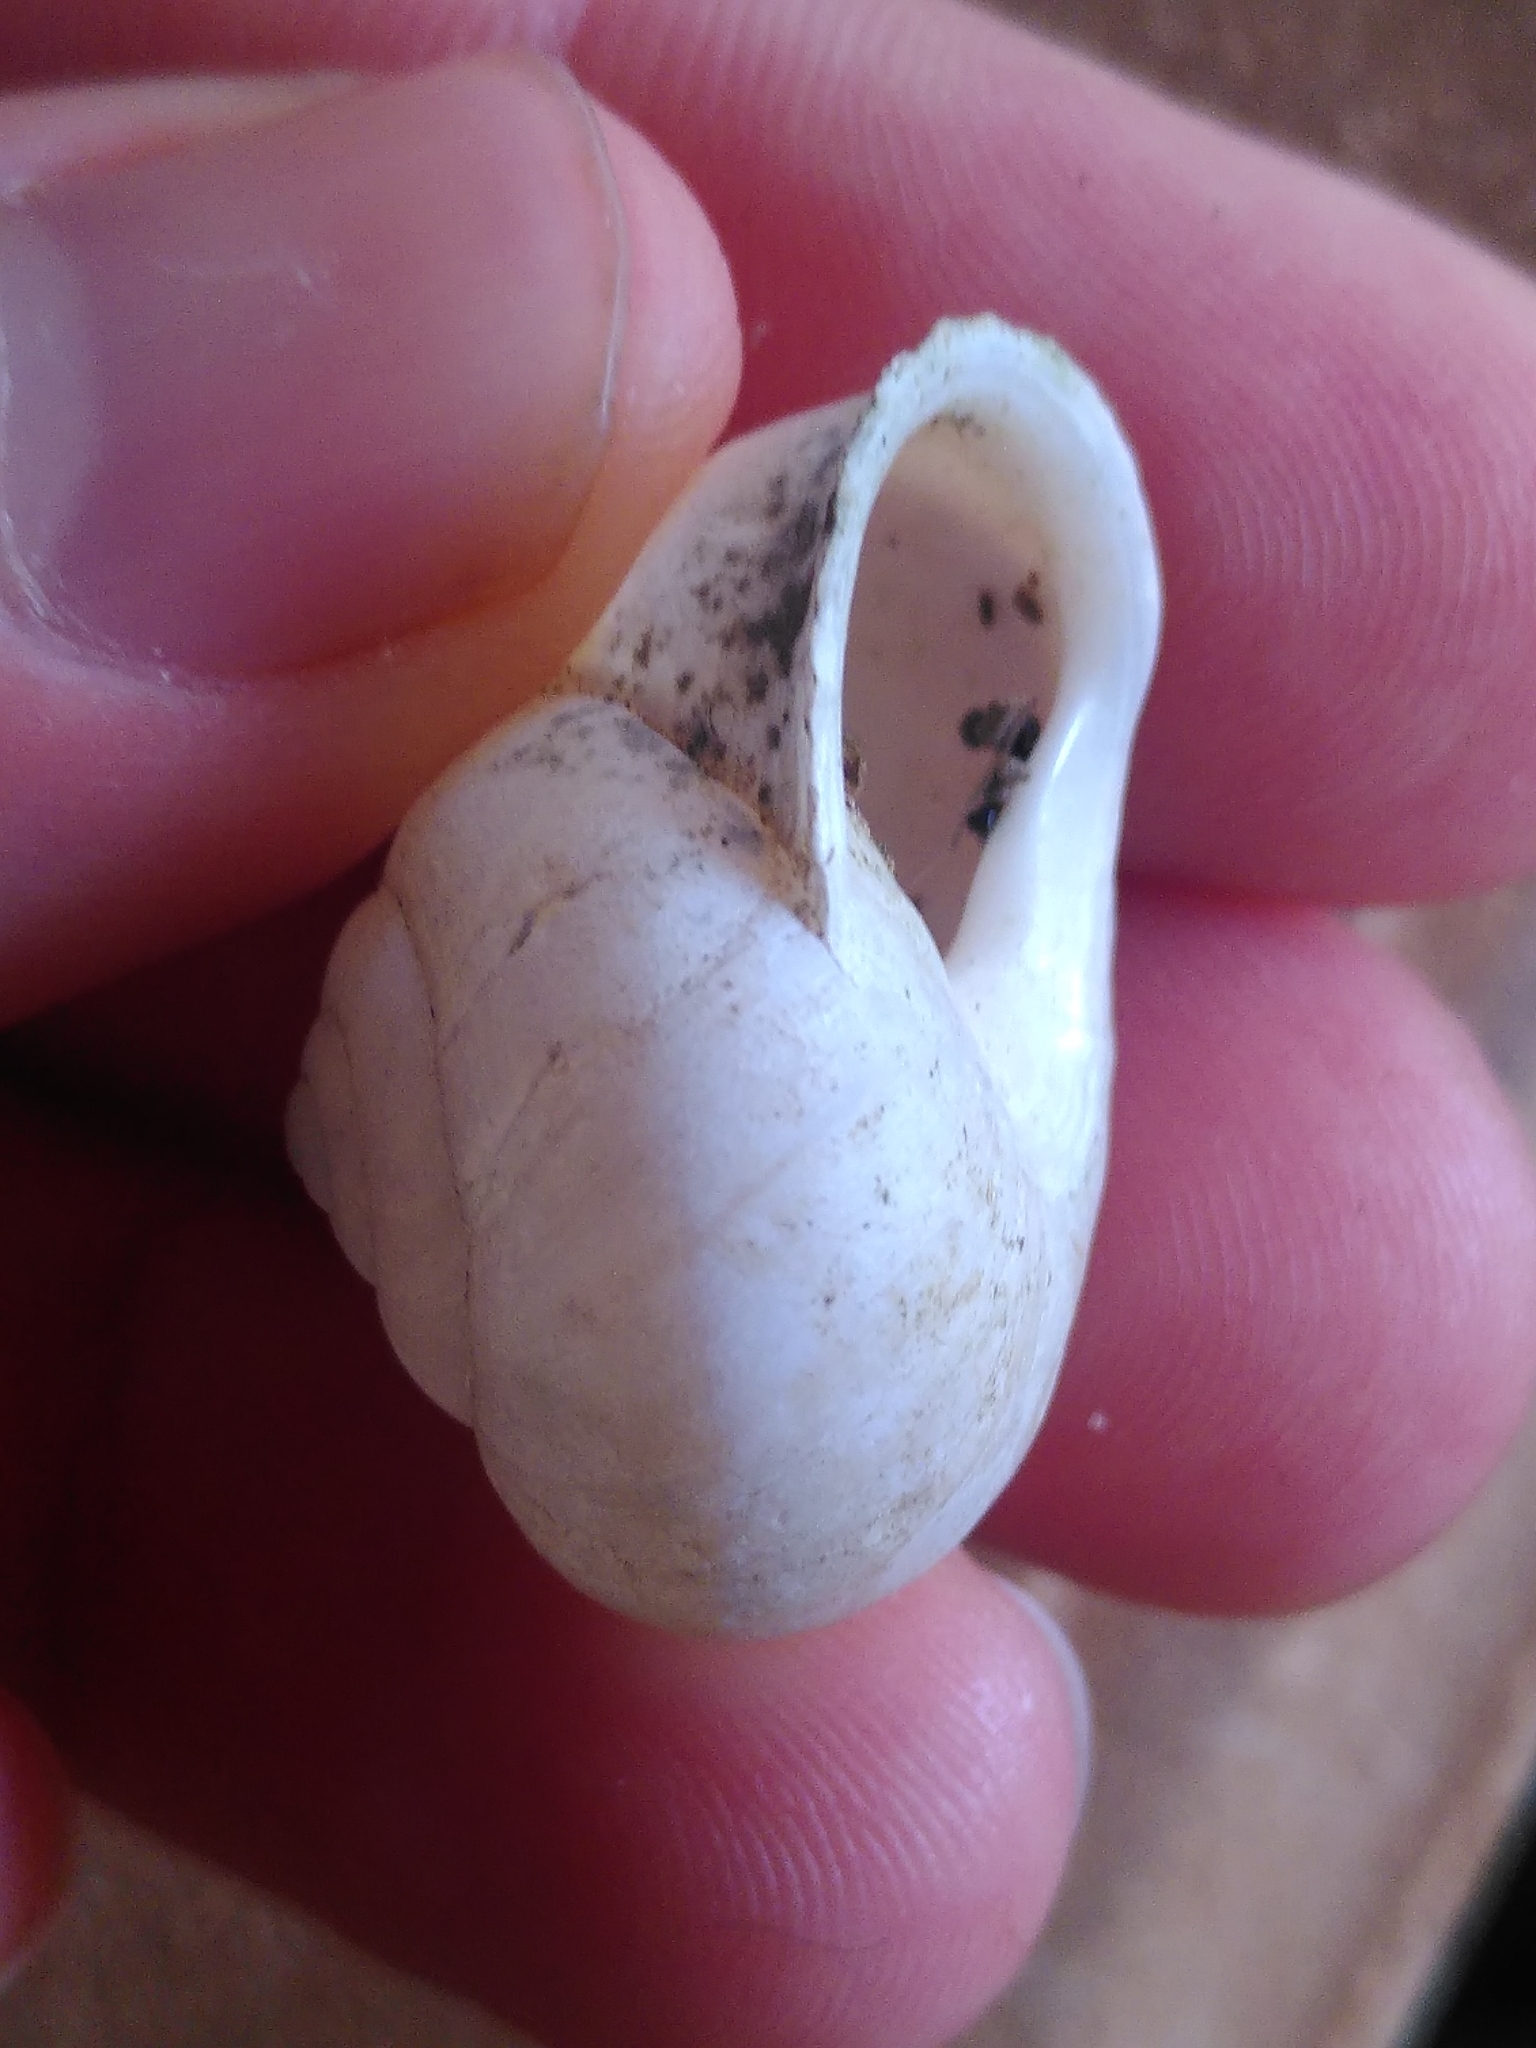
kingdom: Animalia
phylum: Mollusca
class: Gastropoda
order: Stylommatophora
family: Helicidae
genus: Eobania
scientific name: Eobania vermiculata
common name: Chocolateband snail
